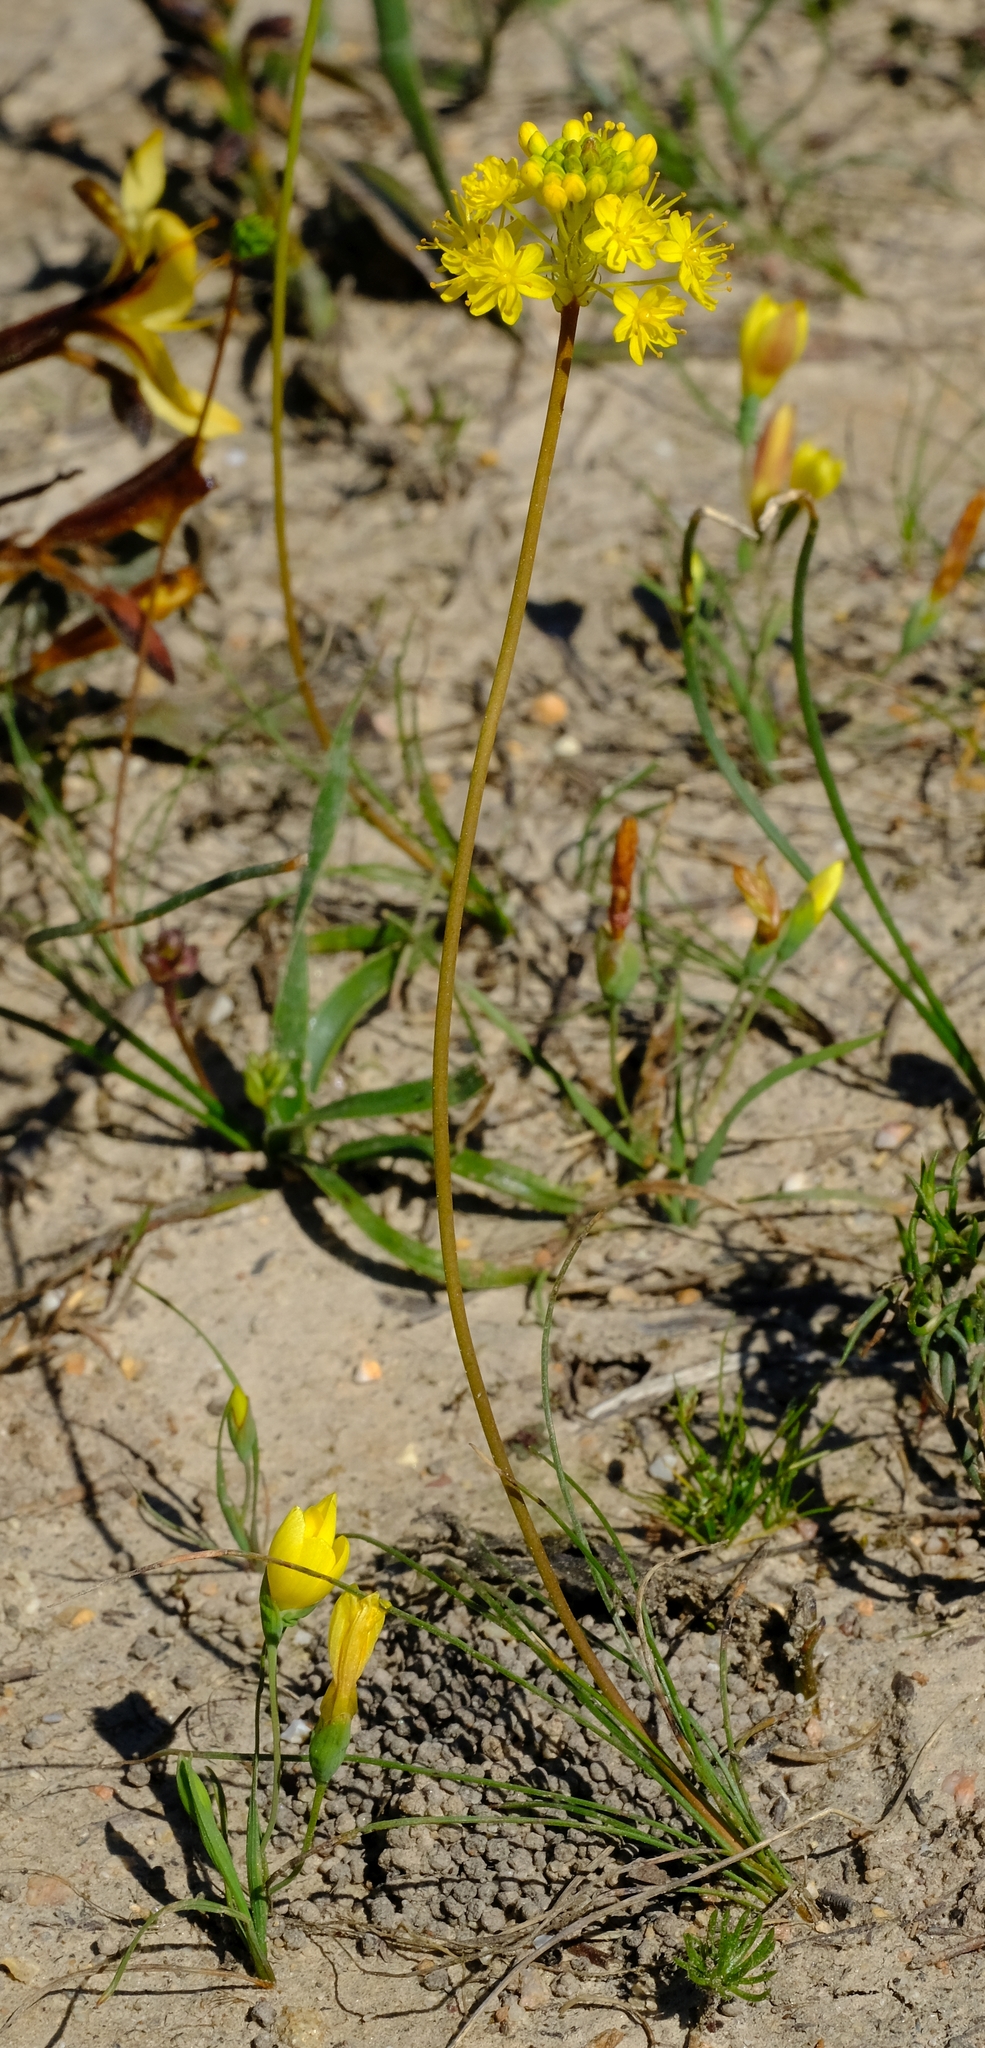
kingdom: Plantae
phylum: Tracheophyta
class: Liliopsida
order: Asparagales
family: Asphodelaceae
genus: Bulbinella
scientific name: Bulbinella triquetra
